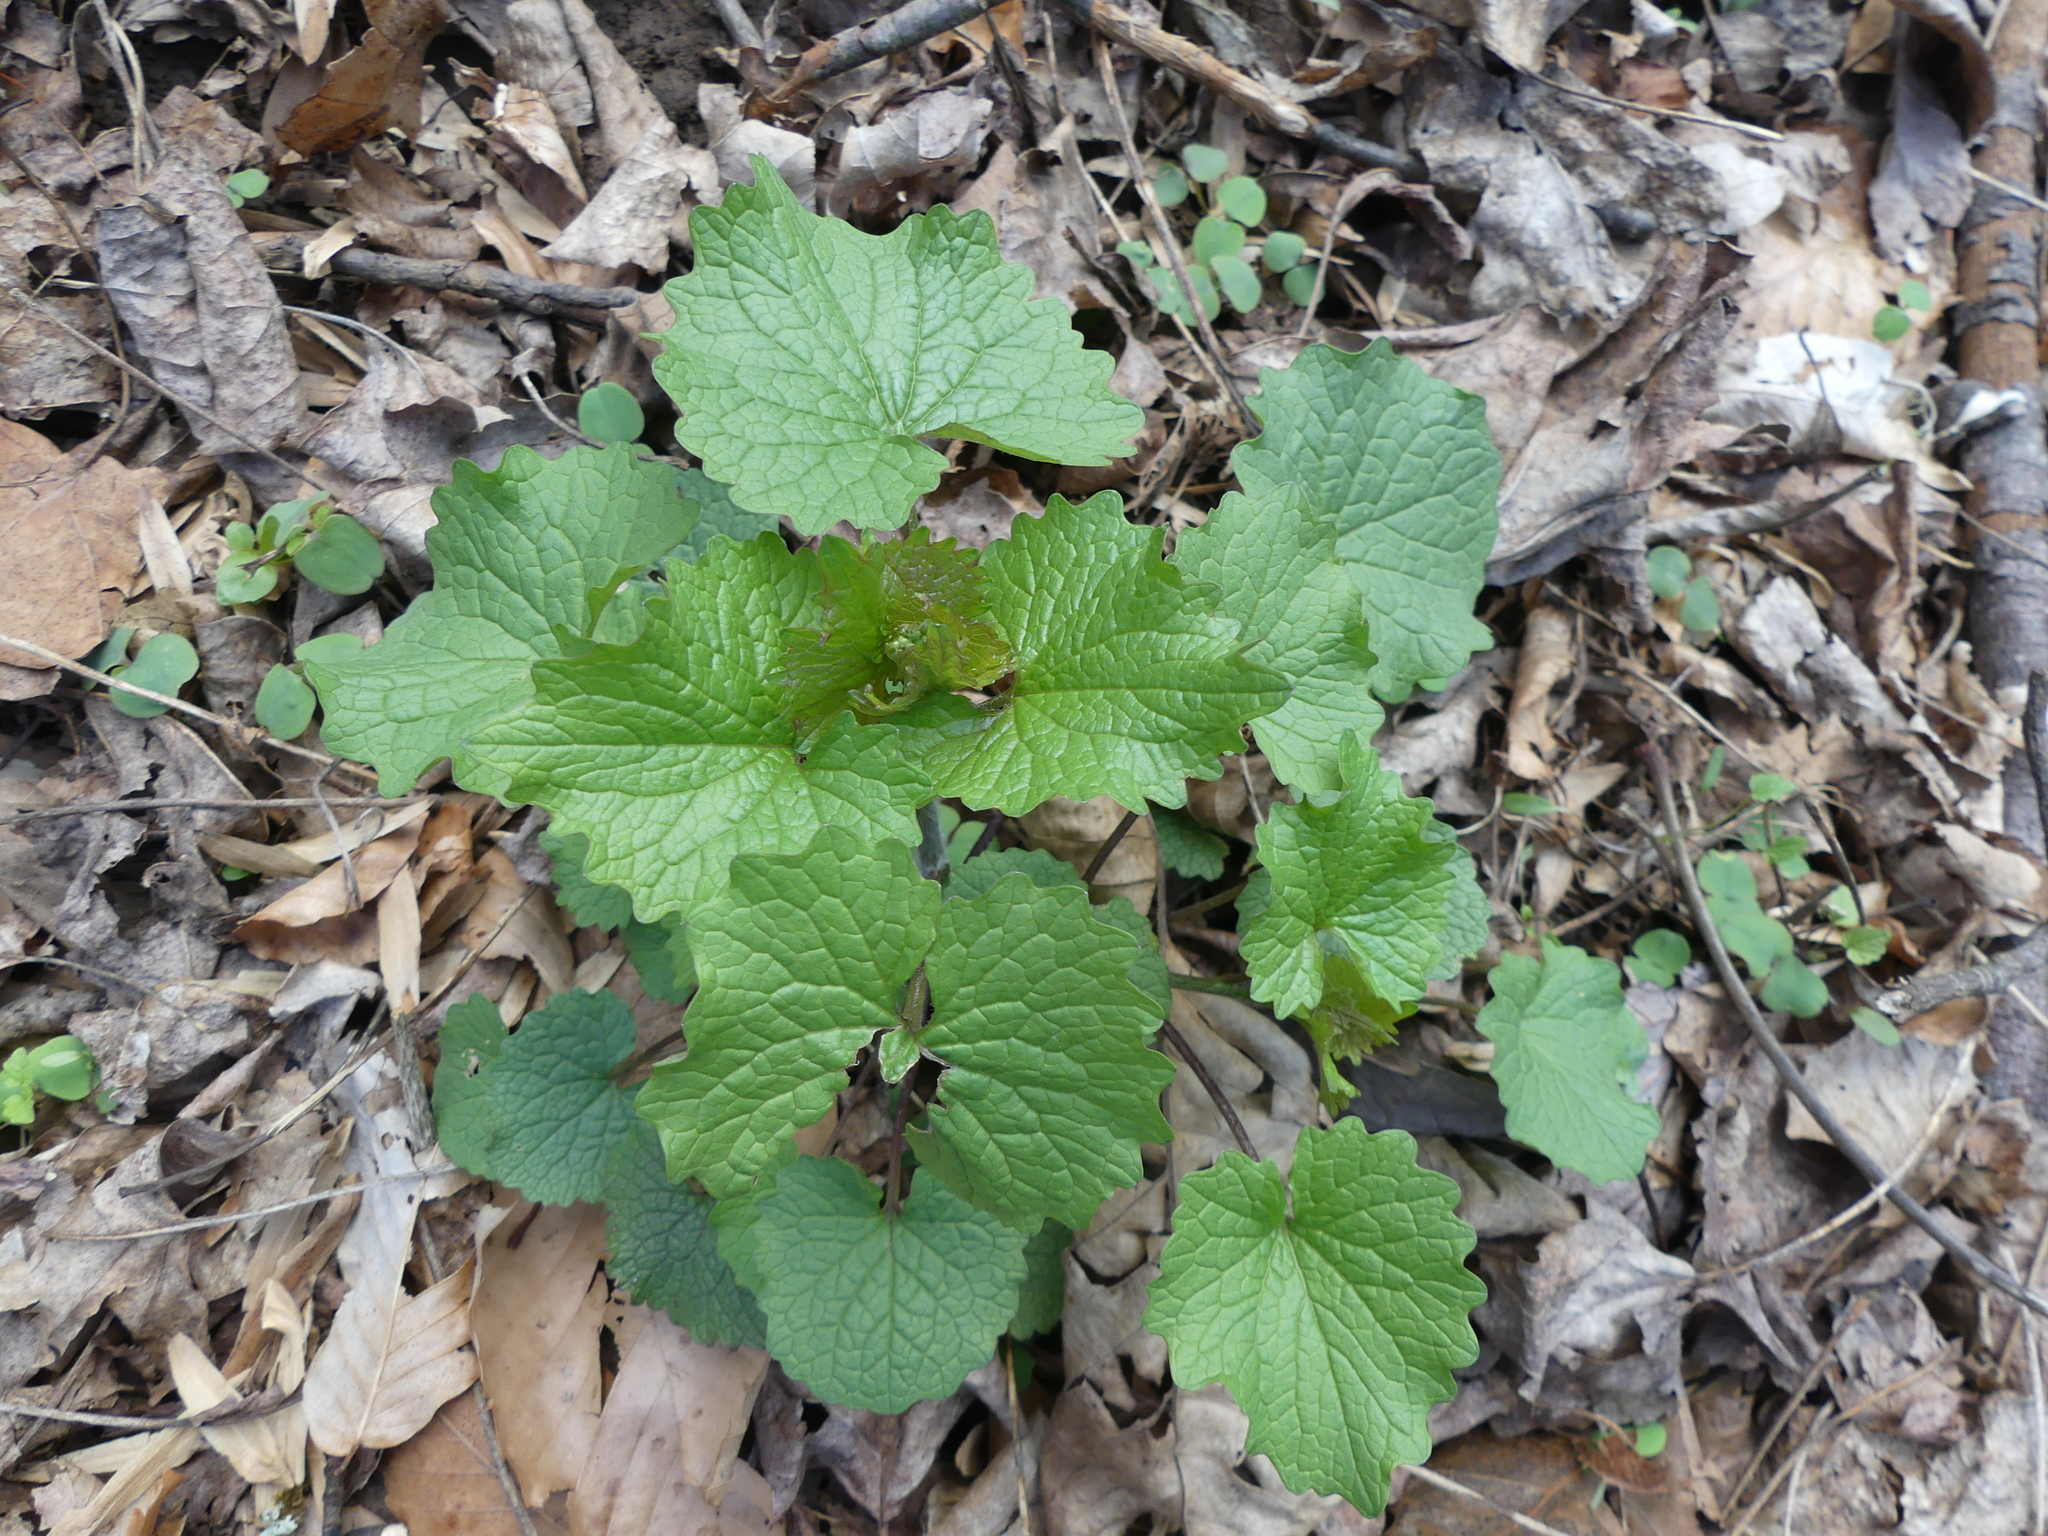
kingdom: Plantae
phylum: Tracheophyta
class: Magnoliopsida
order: Brassicales
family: Brassicaceae
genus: Alliaria
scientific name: Alliaria petiolata
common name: Garlic mustard
